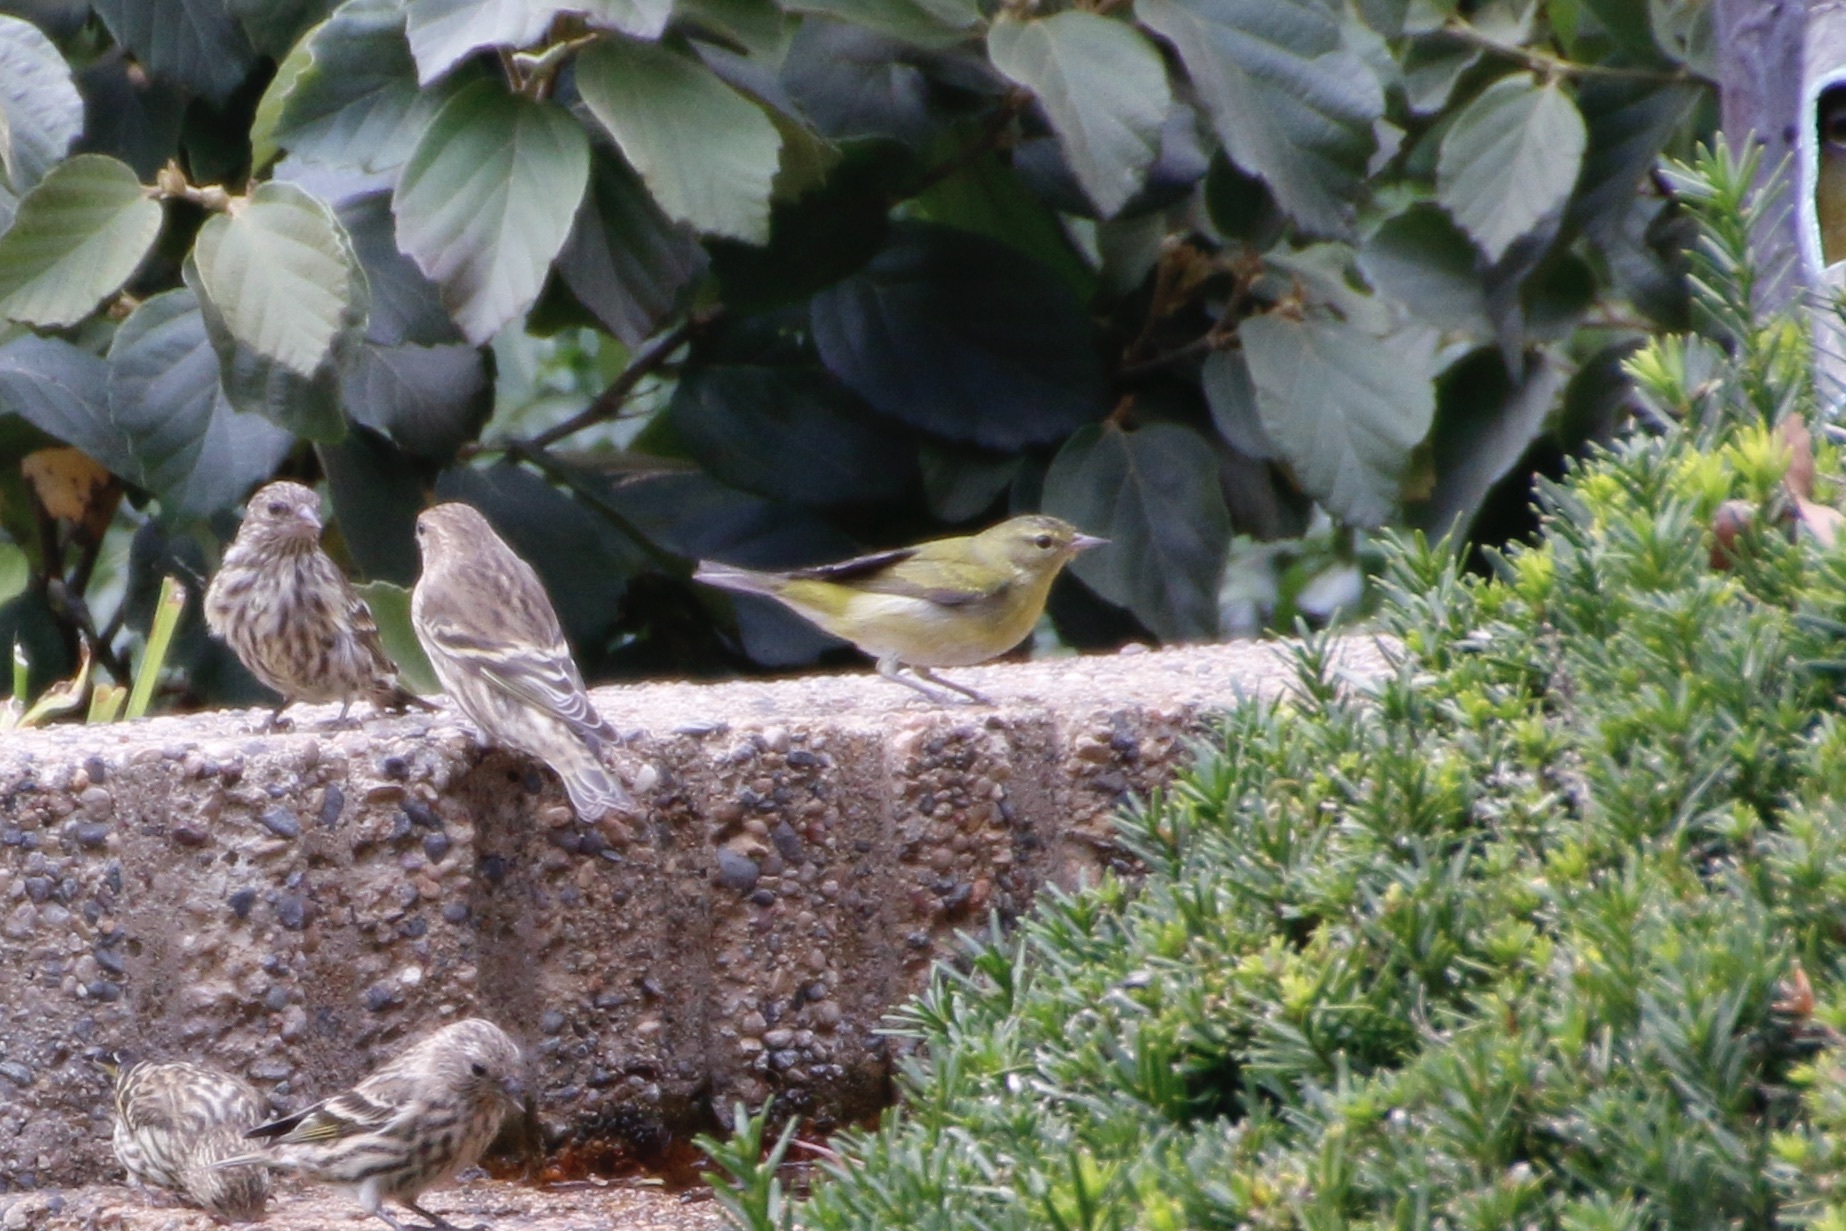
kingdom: Animalia
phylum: Chordata
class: Aves
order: Passeriformes
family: Parulidae
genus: Leiothlypis
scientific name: Leiothlypis peregrina
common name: Tennessee warbler
